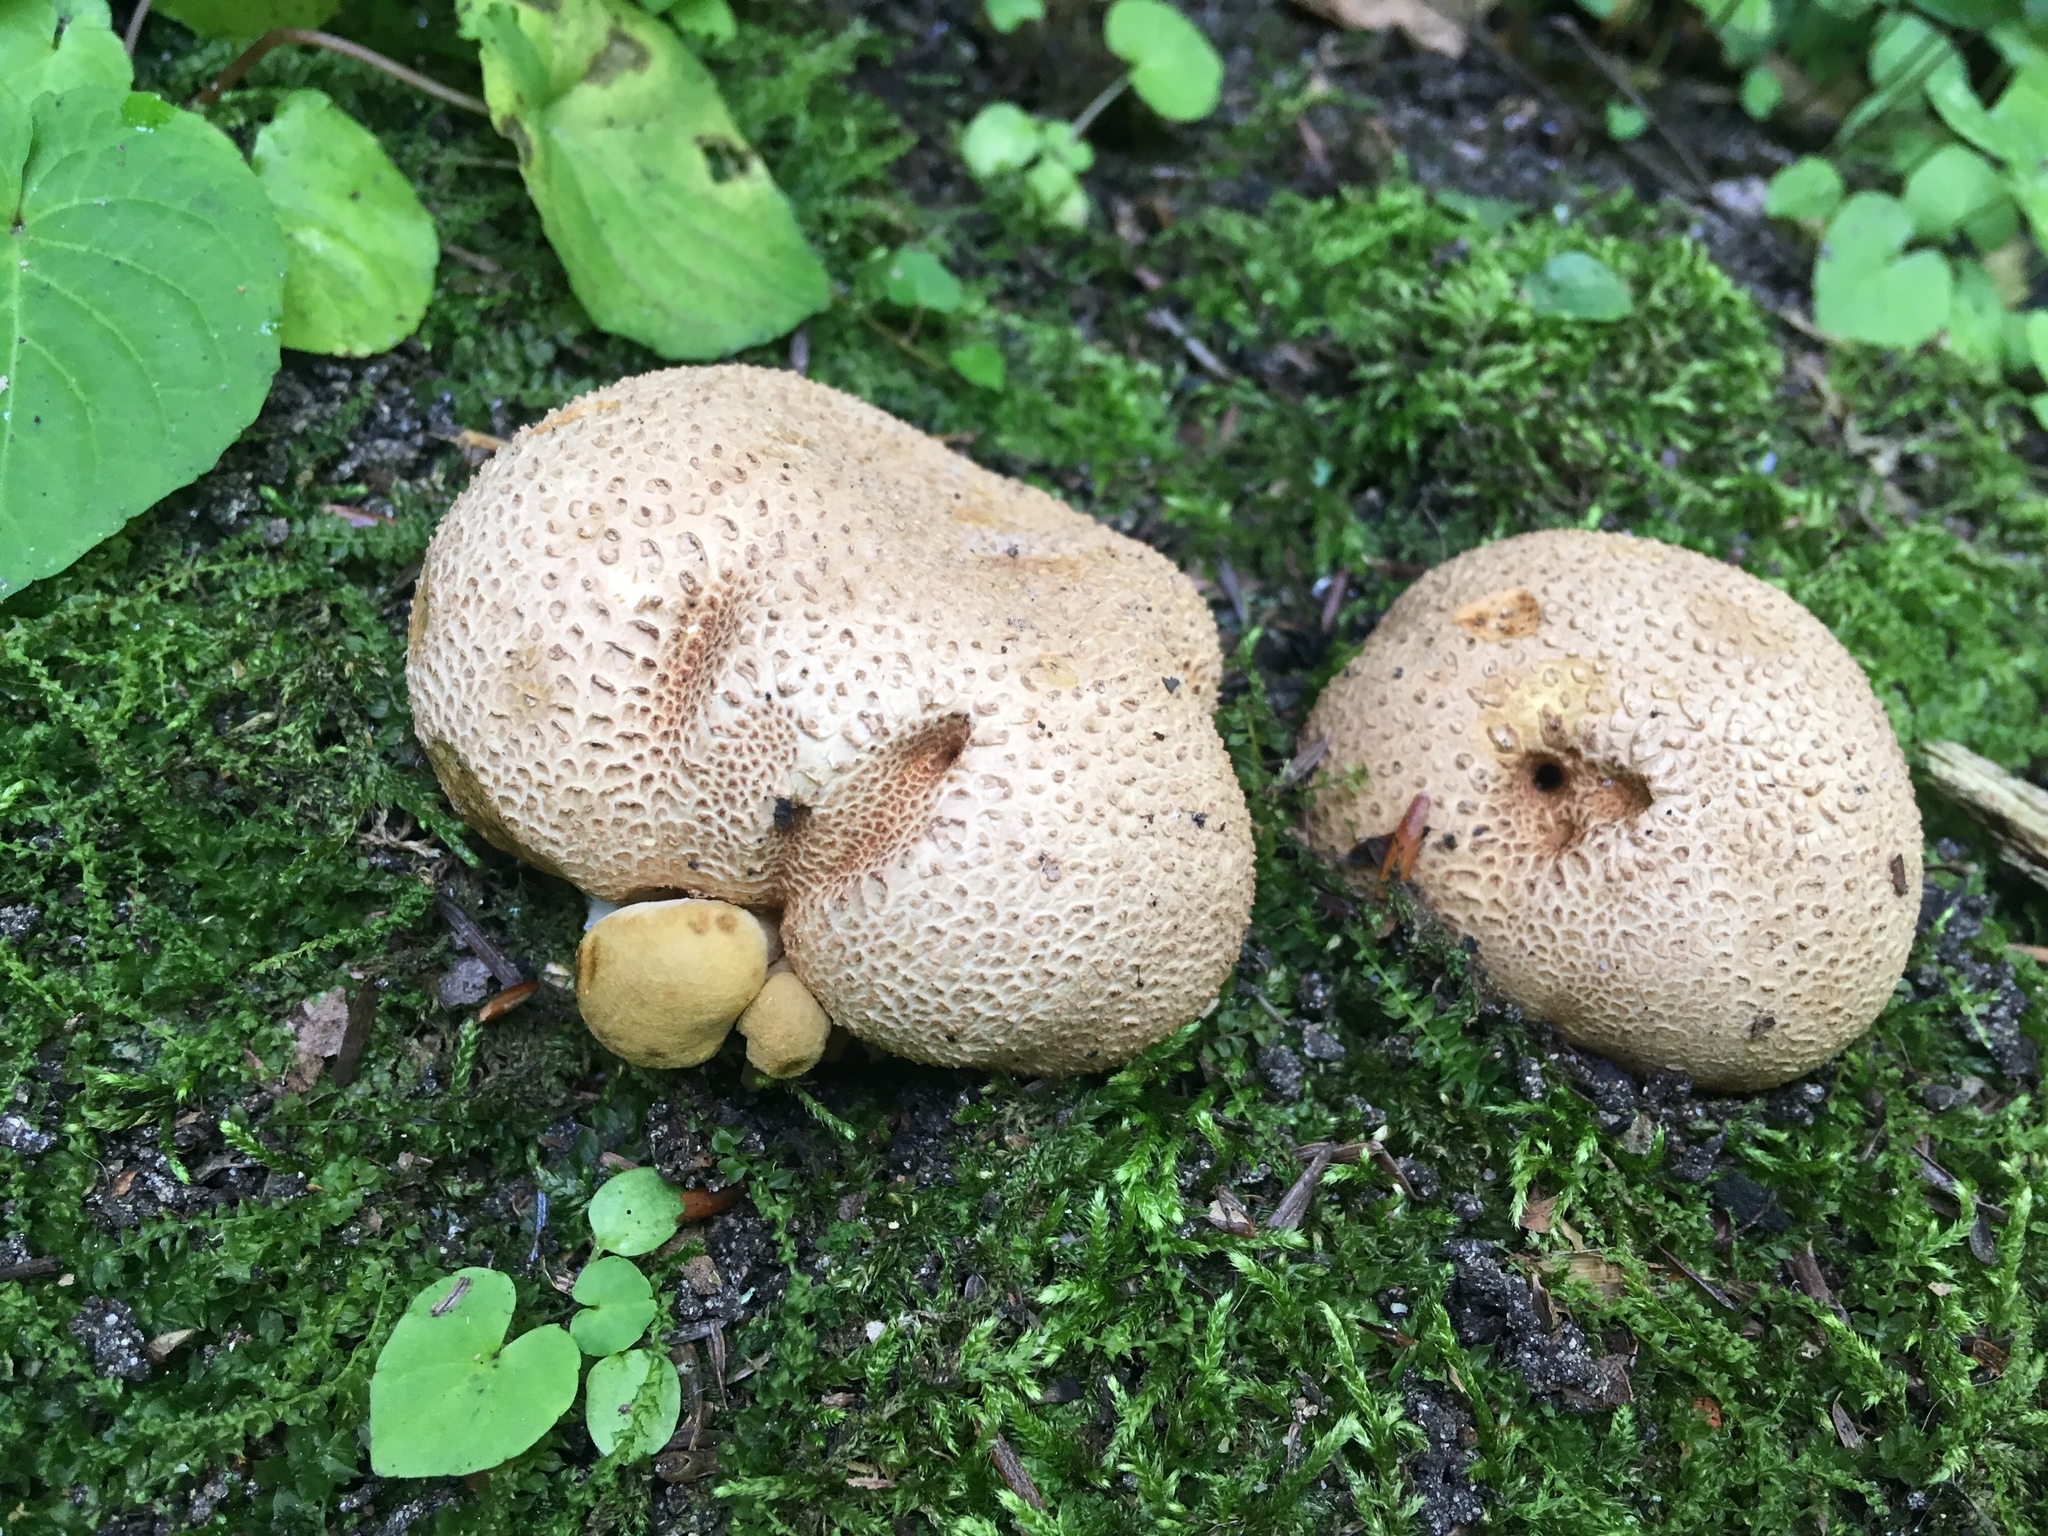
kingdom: Fungi
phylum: Basidiomycota
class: Agaricomycetes
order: Boletales
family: Boletaceae
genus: Pseudoboletus
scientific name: Pseudoboletus parasiticus
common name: Parasitic bolete
